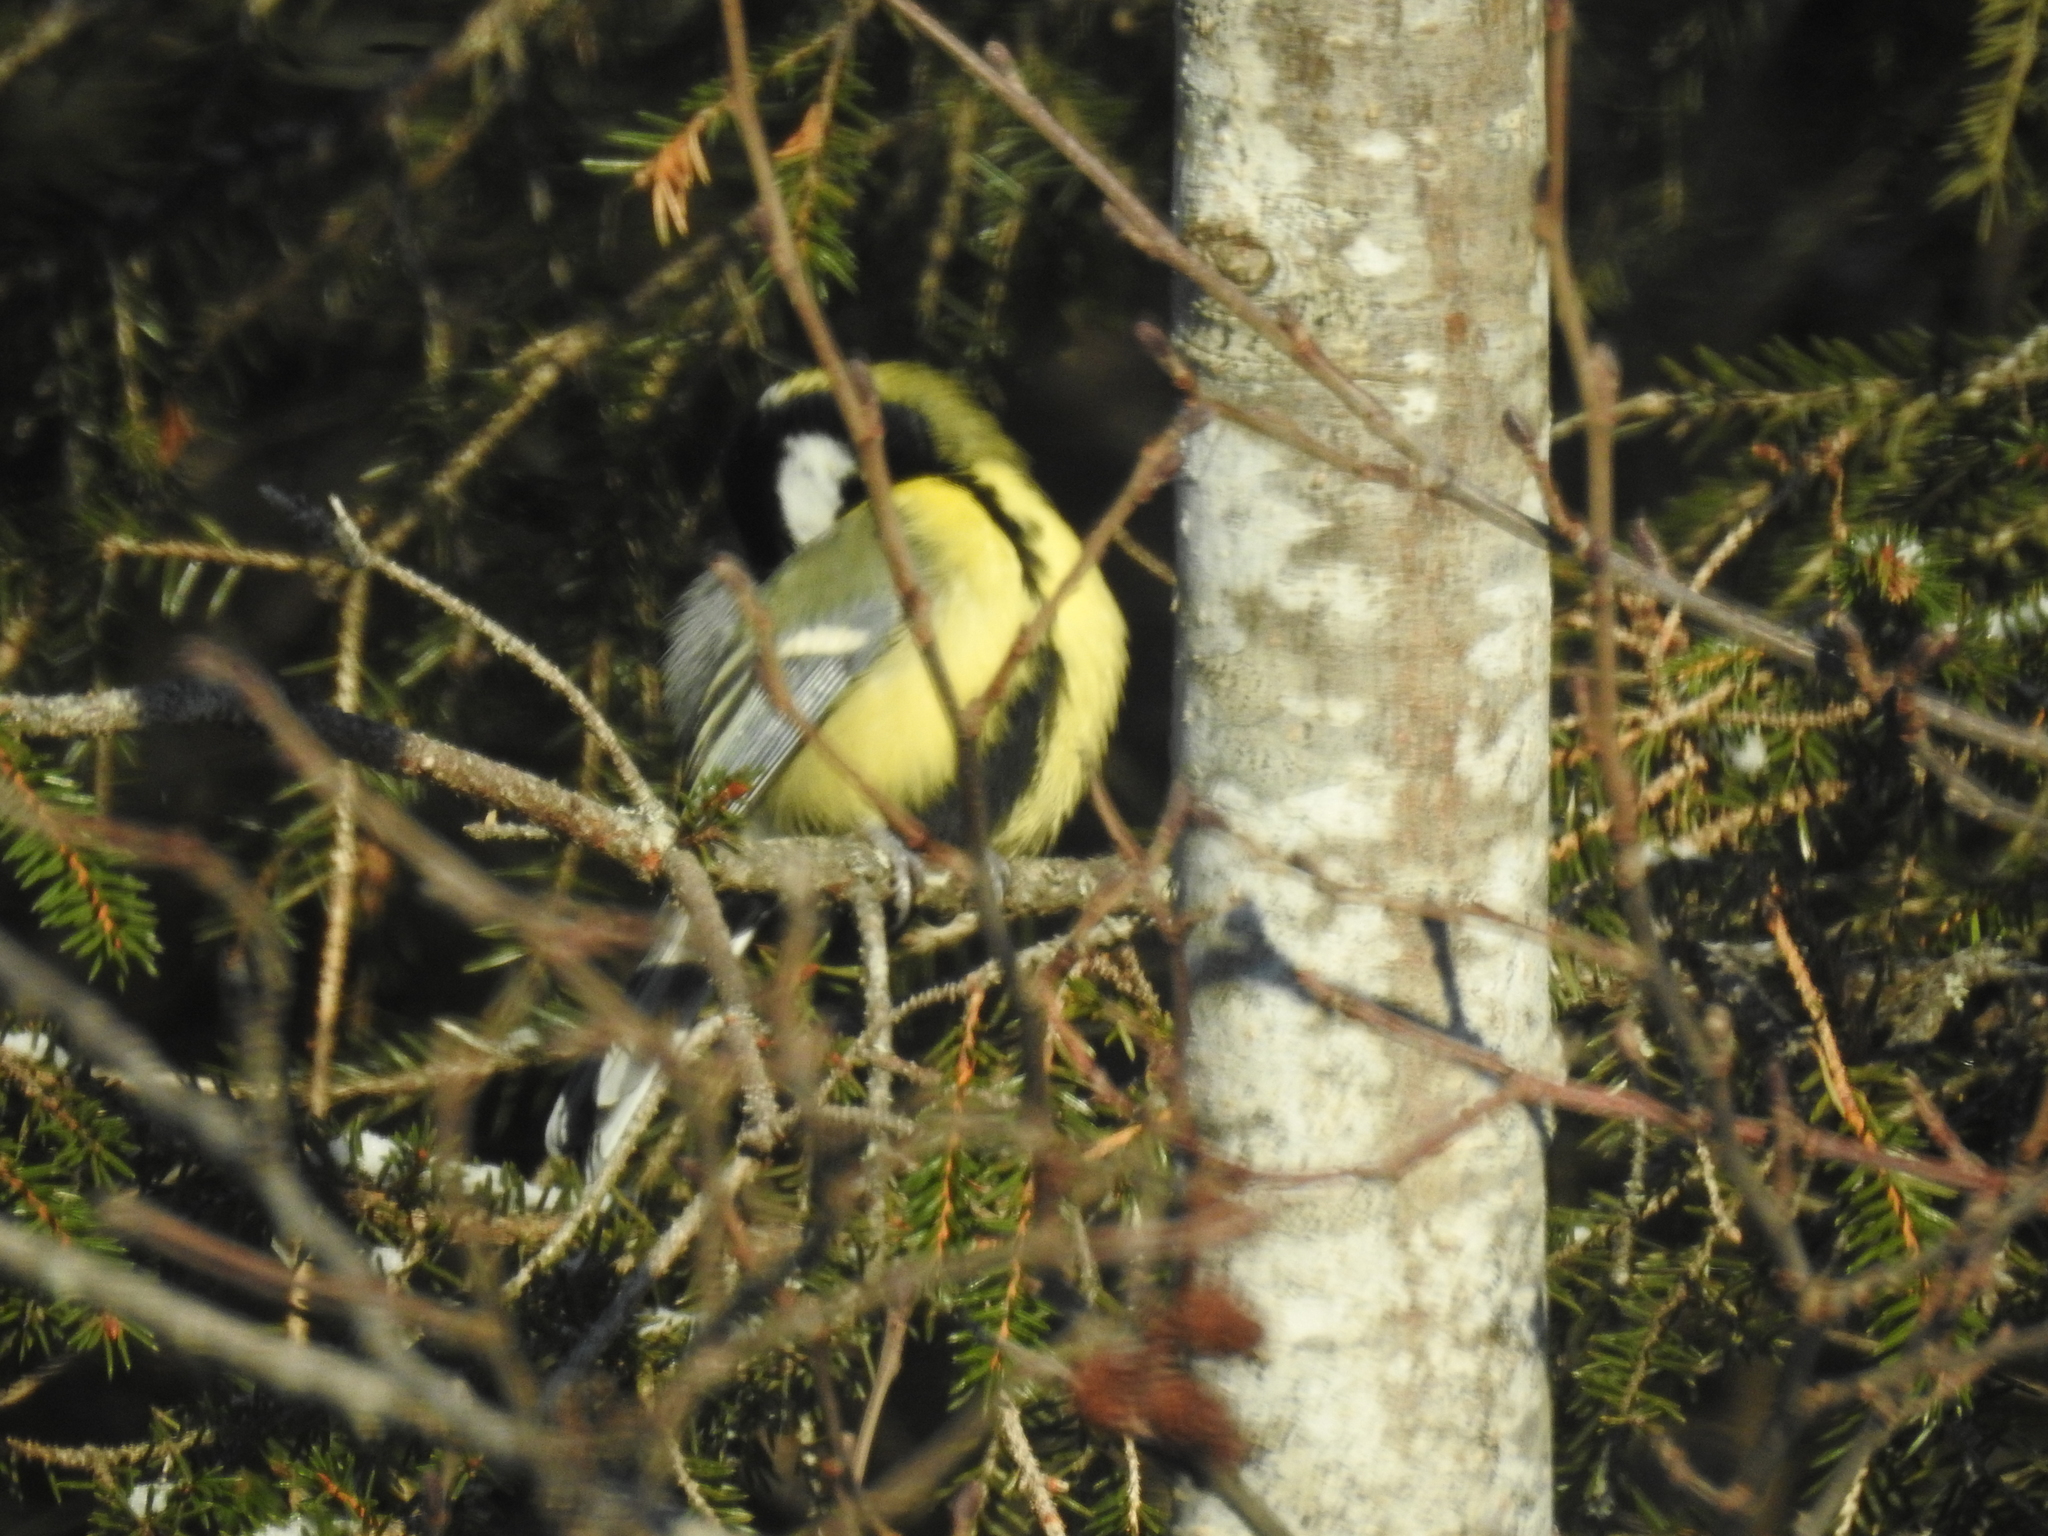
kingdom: Animalia
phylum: Chordata
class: Aves
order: Passeriformes
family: Paridae
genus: Parus
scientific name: Parus major
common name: Great tit
